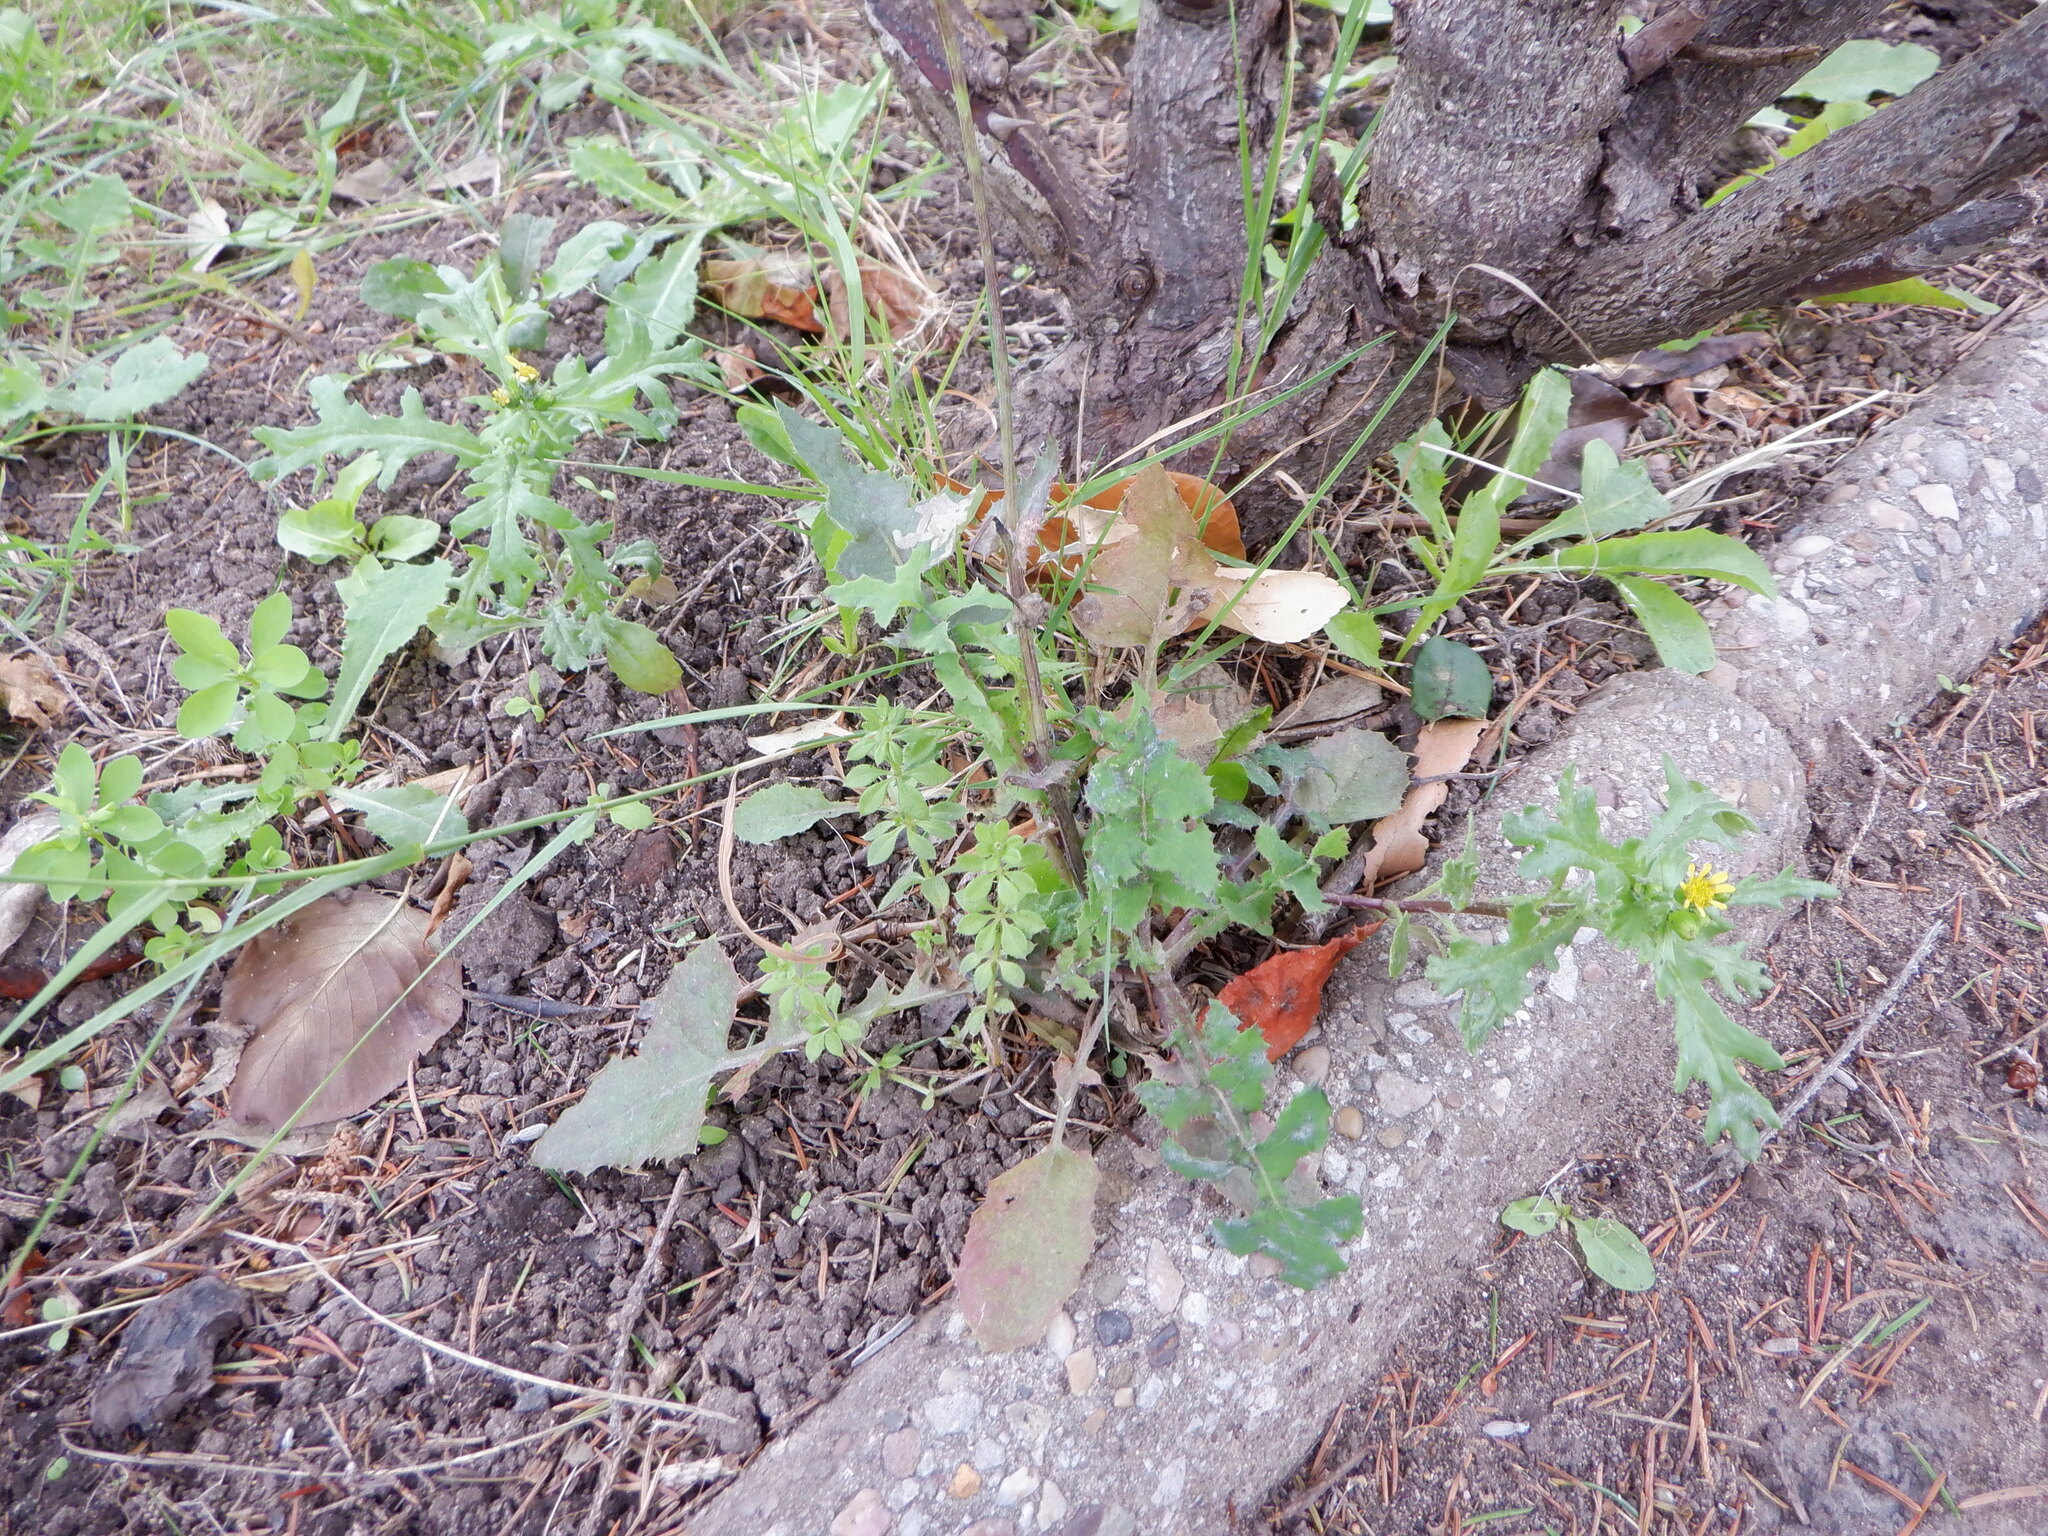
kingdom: Plantae
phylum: Tracheophyta
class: Magnoliopsida
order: Asterales
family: Asteraceae
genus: Senecio
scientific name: Senecio vulgaris
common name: Old-man-in-the-spring
